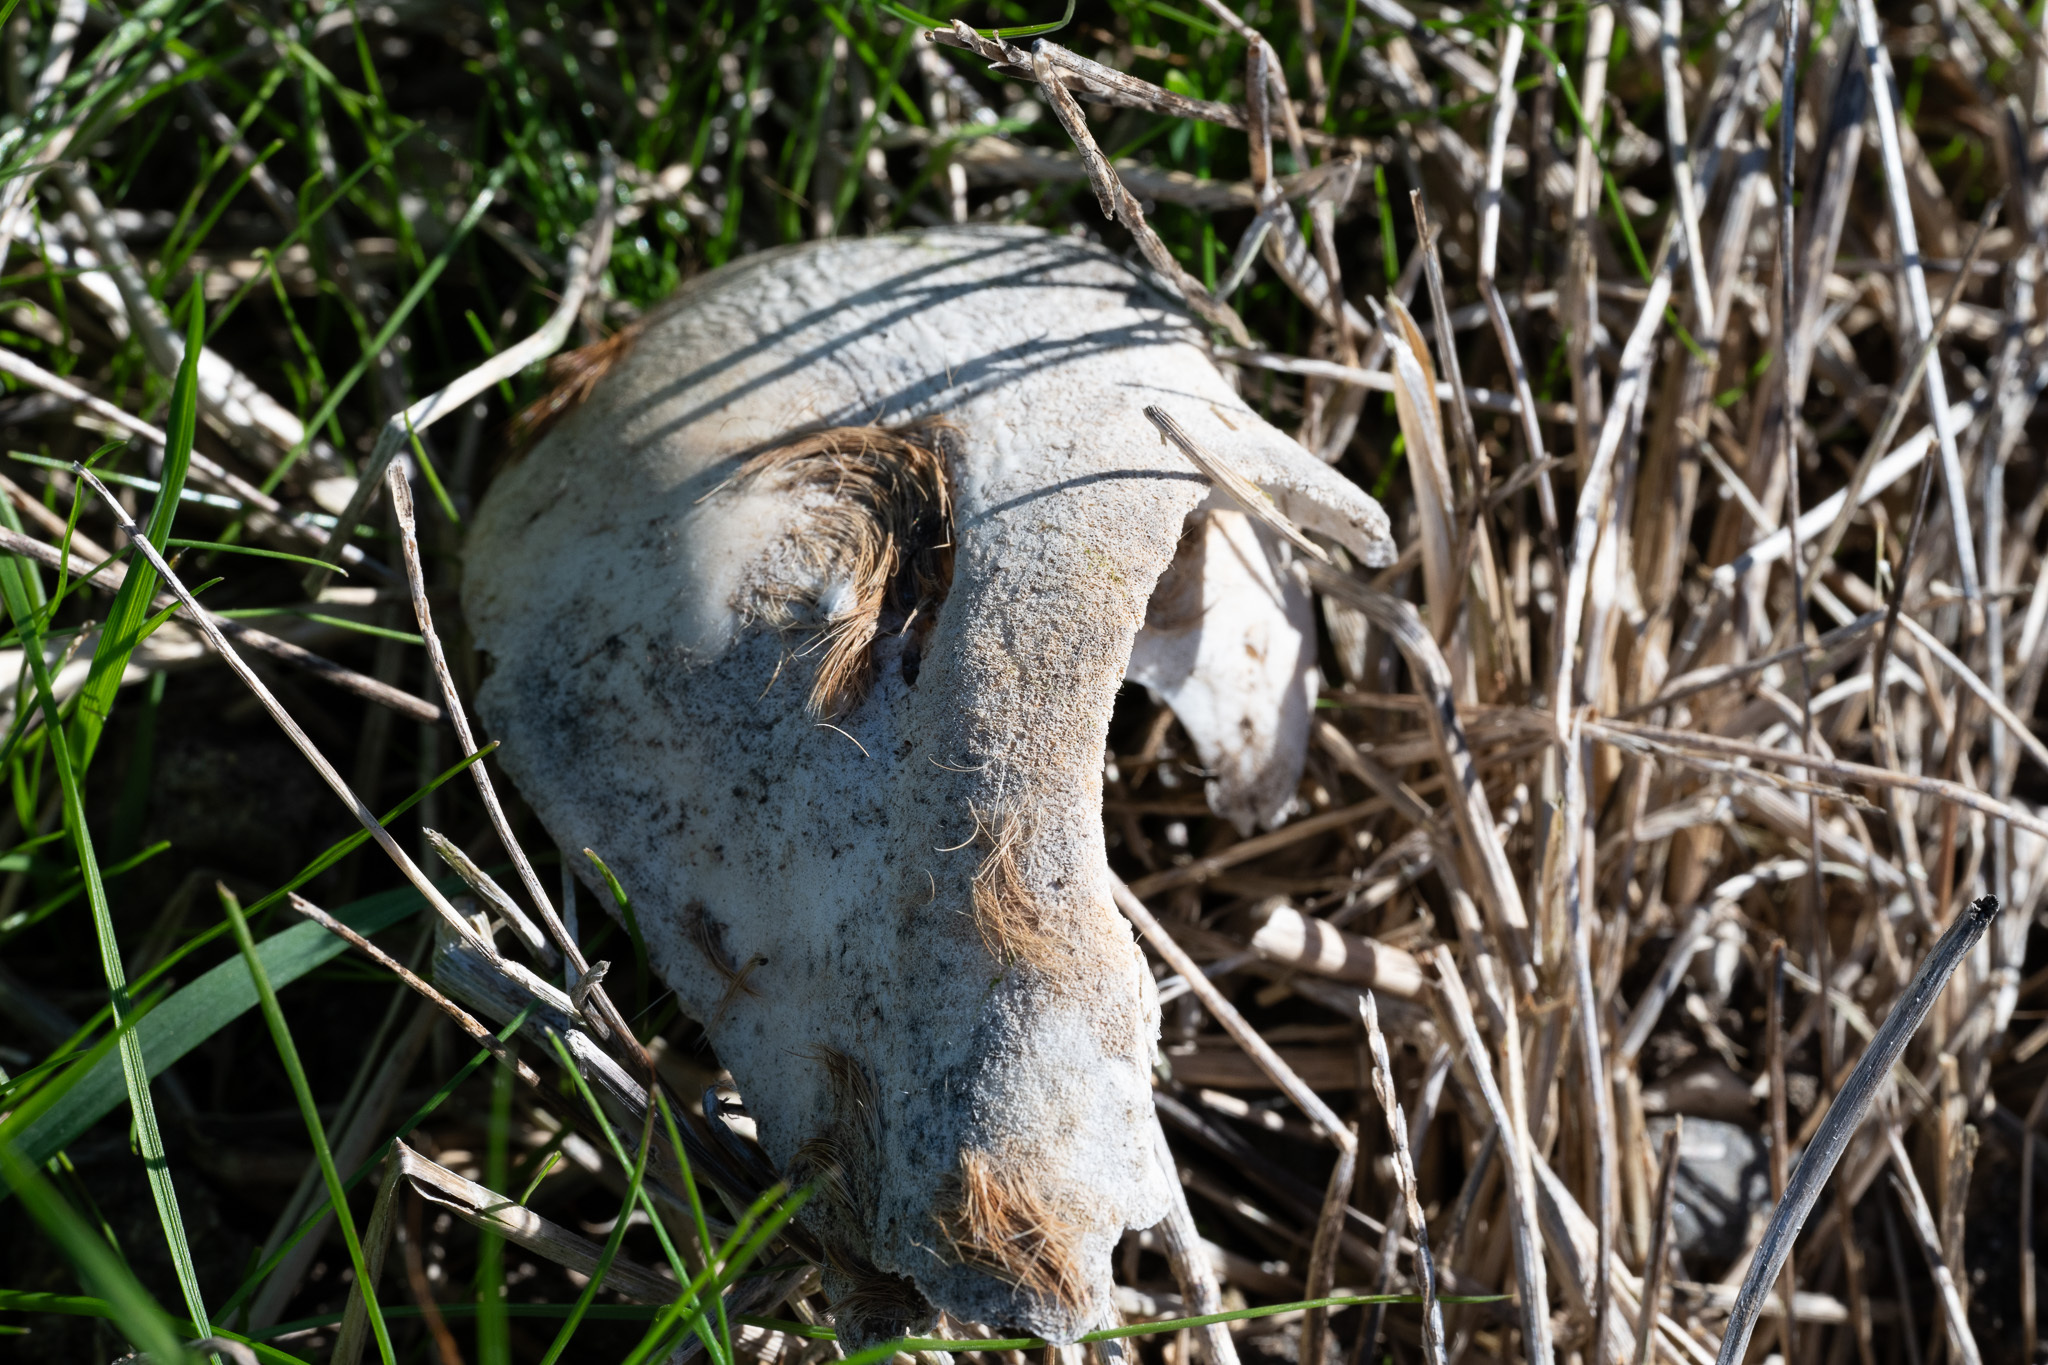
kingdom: Animalia
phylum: Chordata
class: Mammalia
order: Artiodactyla
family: Cervidae
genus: Odocoileus
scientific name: Odocoileus hemionus
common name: Mule deer
